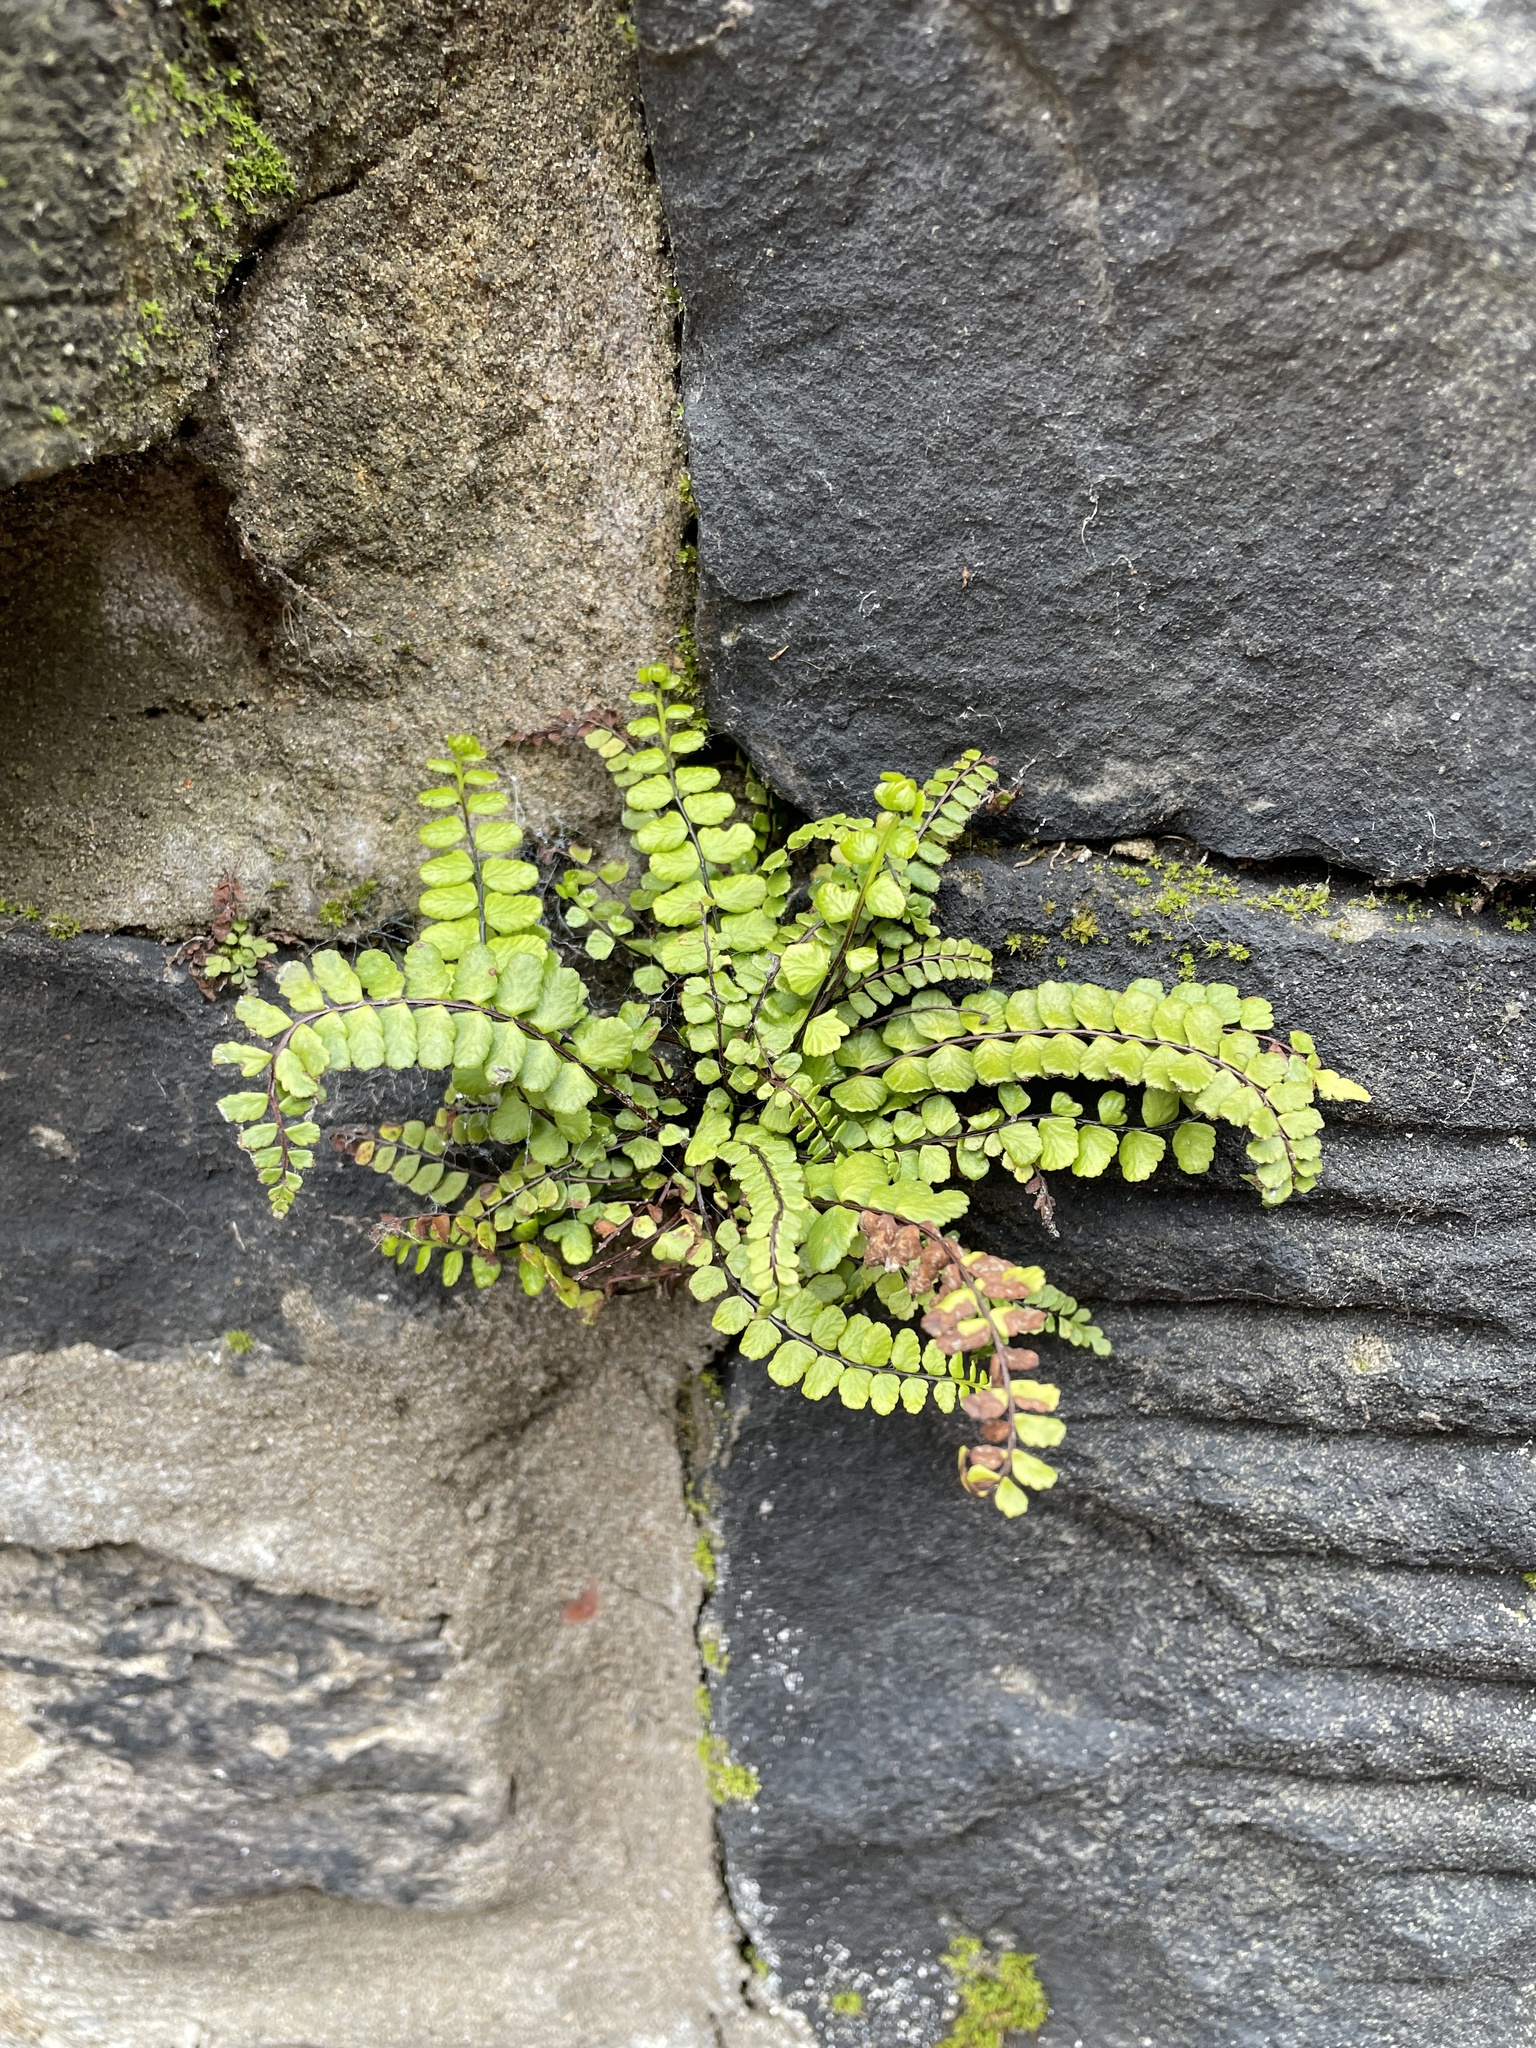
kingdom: Plantae
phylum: Tracheophyta
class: Polypodiopsida
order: Polypodiales
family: Aspleniaceae
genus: Asplenium
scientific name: Asplenium trichomanes
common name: Maidenhair spleenwort
